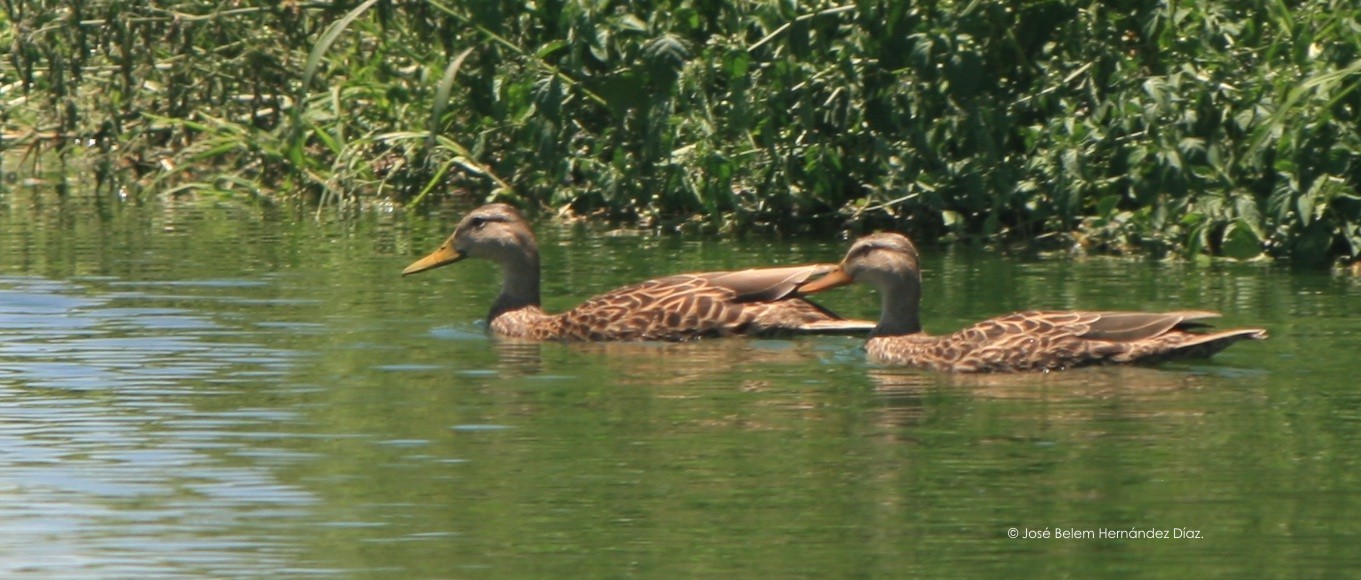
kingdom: Animalia
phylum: Chordata
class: Aves
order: Anseriformes
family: Anatidae
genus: Anas
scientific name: Anas diazi
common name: Mexican duck
